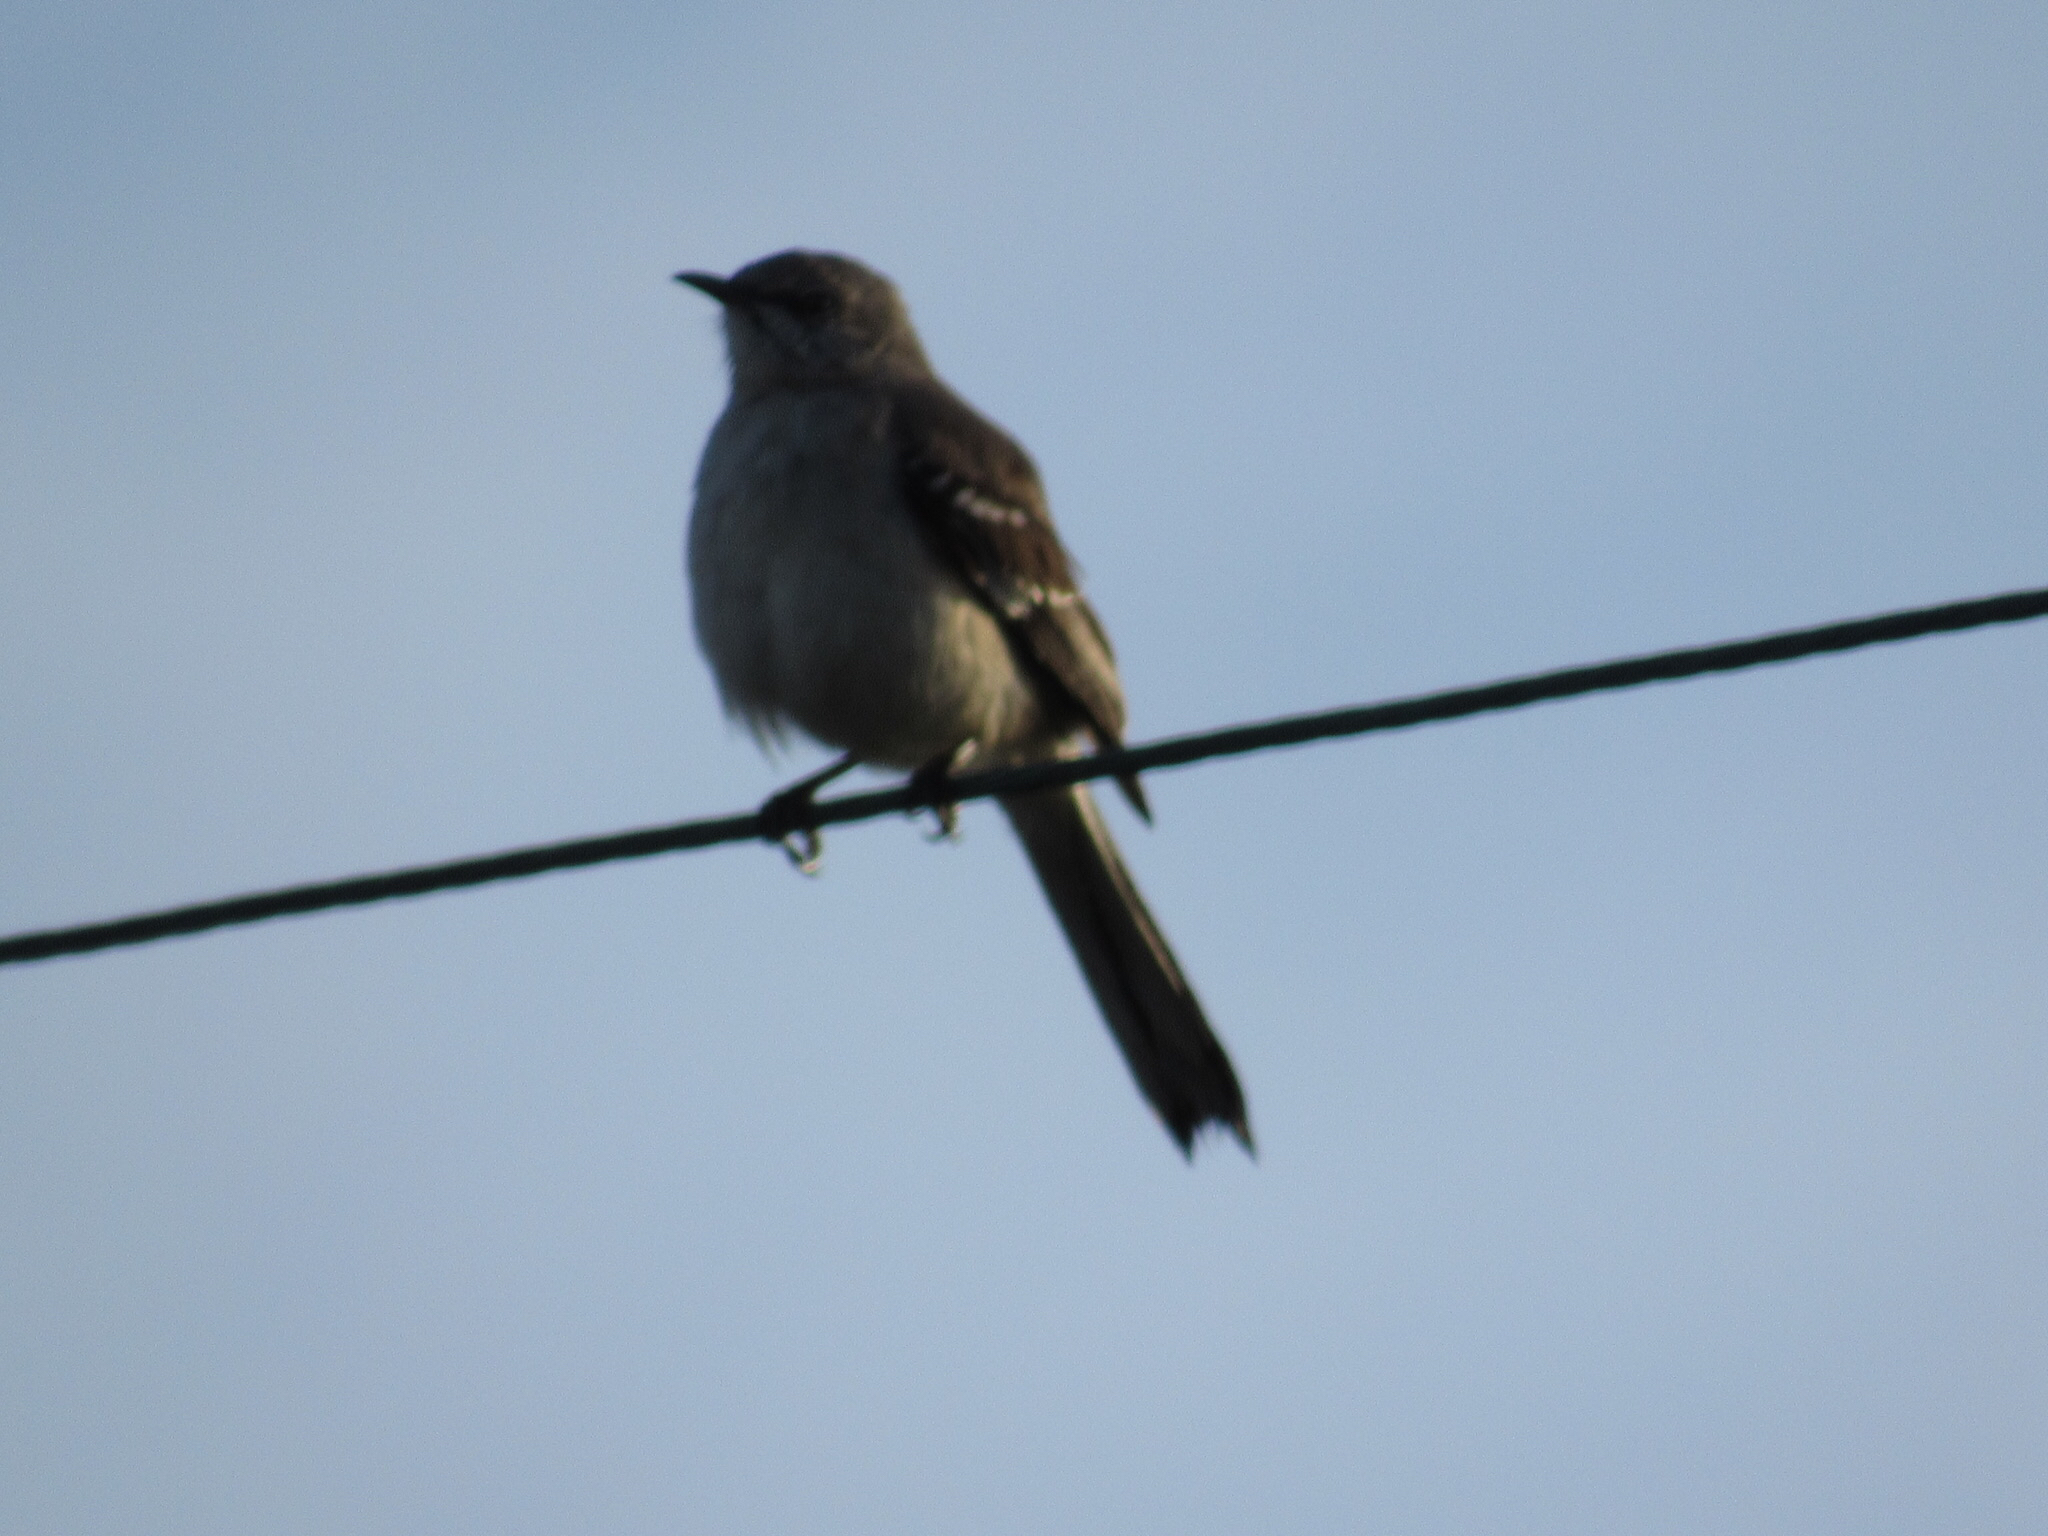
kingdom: Animalia
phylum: Chordata
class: Aves
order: Passeriformes
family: Mimidae
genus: Mimus
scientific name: Mimus polyglottos
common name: Northern mockingbird
